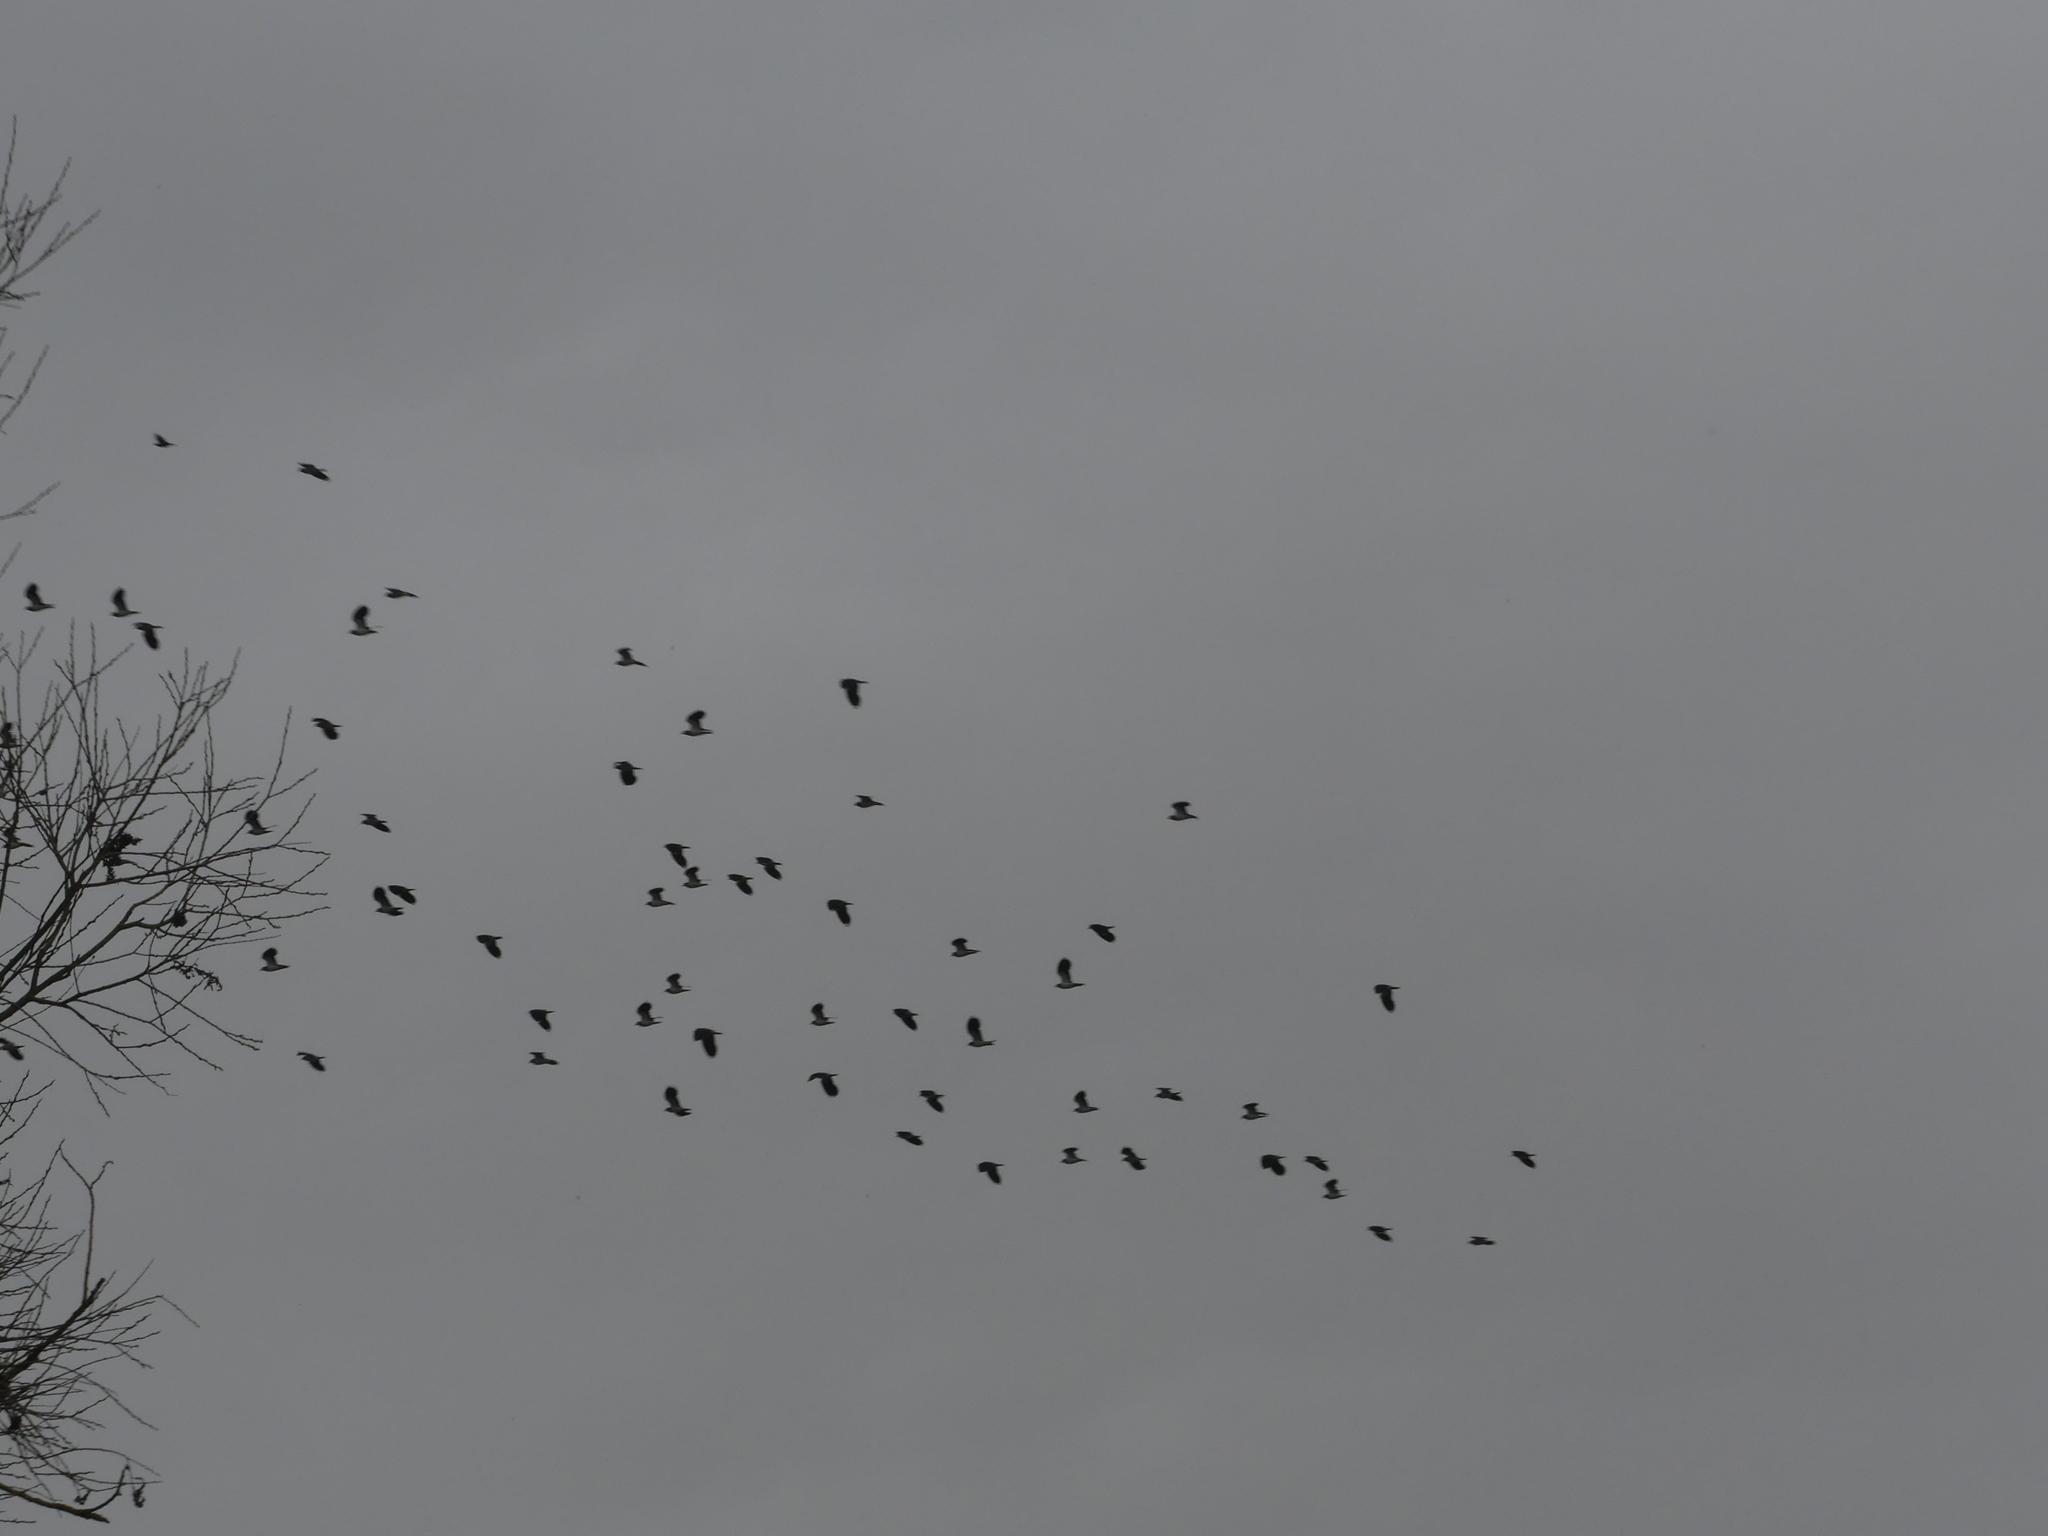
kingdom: Animalia
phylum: Chordata
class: Aves
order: Charadriiformes
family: Charadriidae
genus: Vanellus
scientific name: Vanellus vanellus
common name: Northern lapwing
